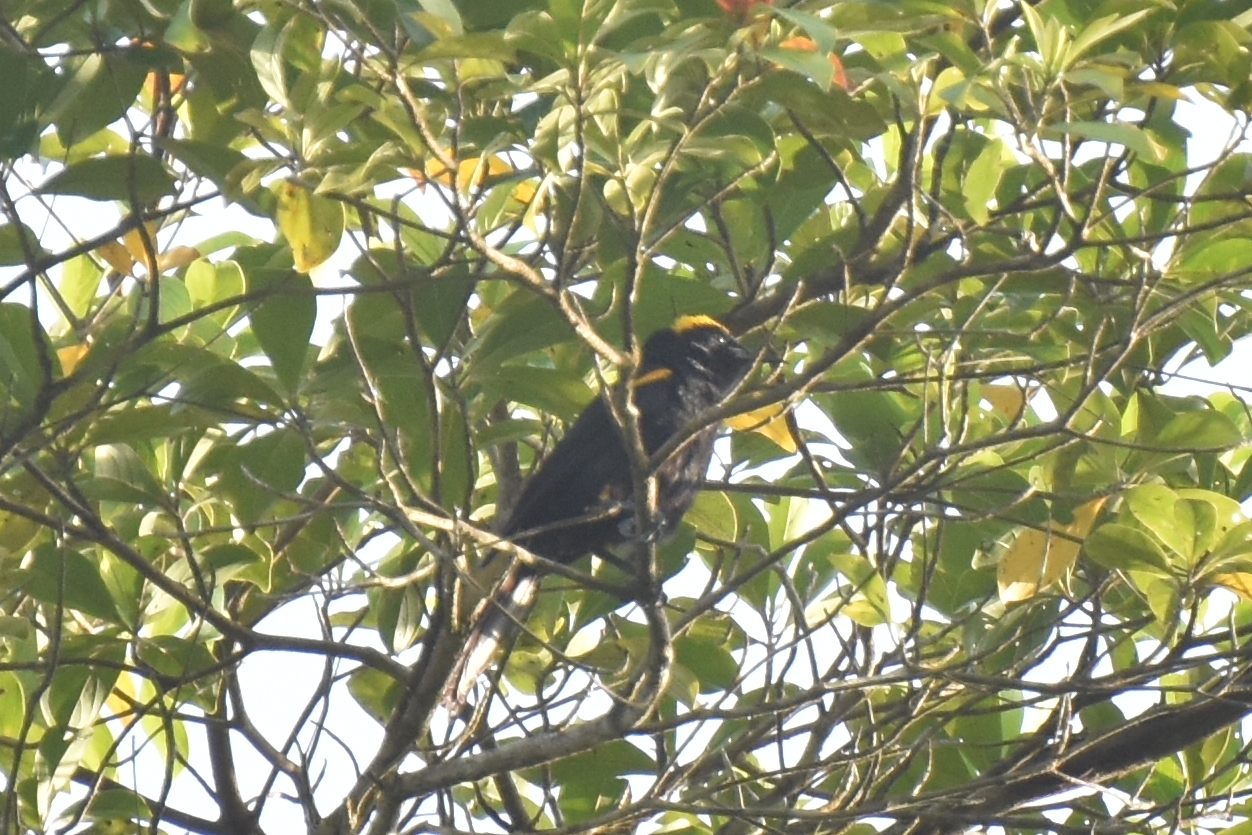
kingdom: Animalia
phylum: Chordata
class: Aves
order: Passeriformes
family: Icteridae
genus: Icterus
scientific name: Icterus cayanensis
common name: Epaulet oriole
